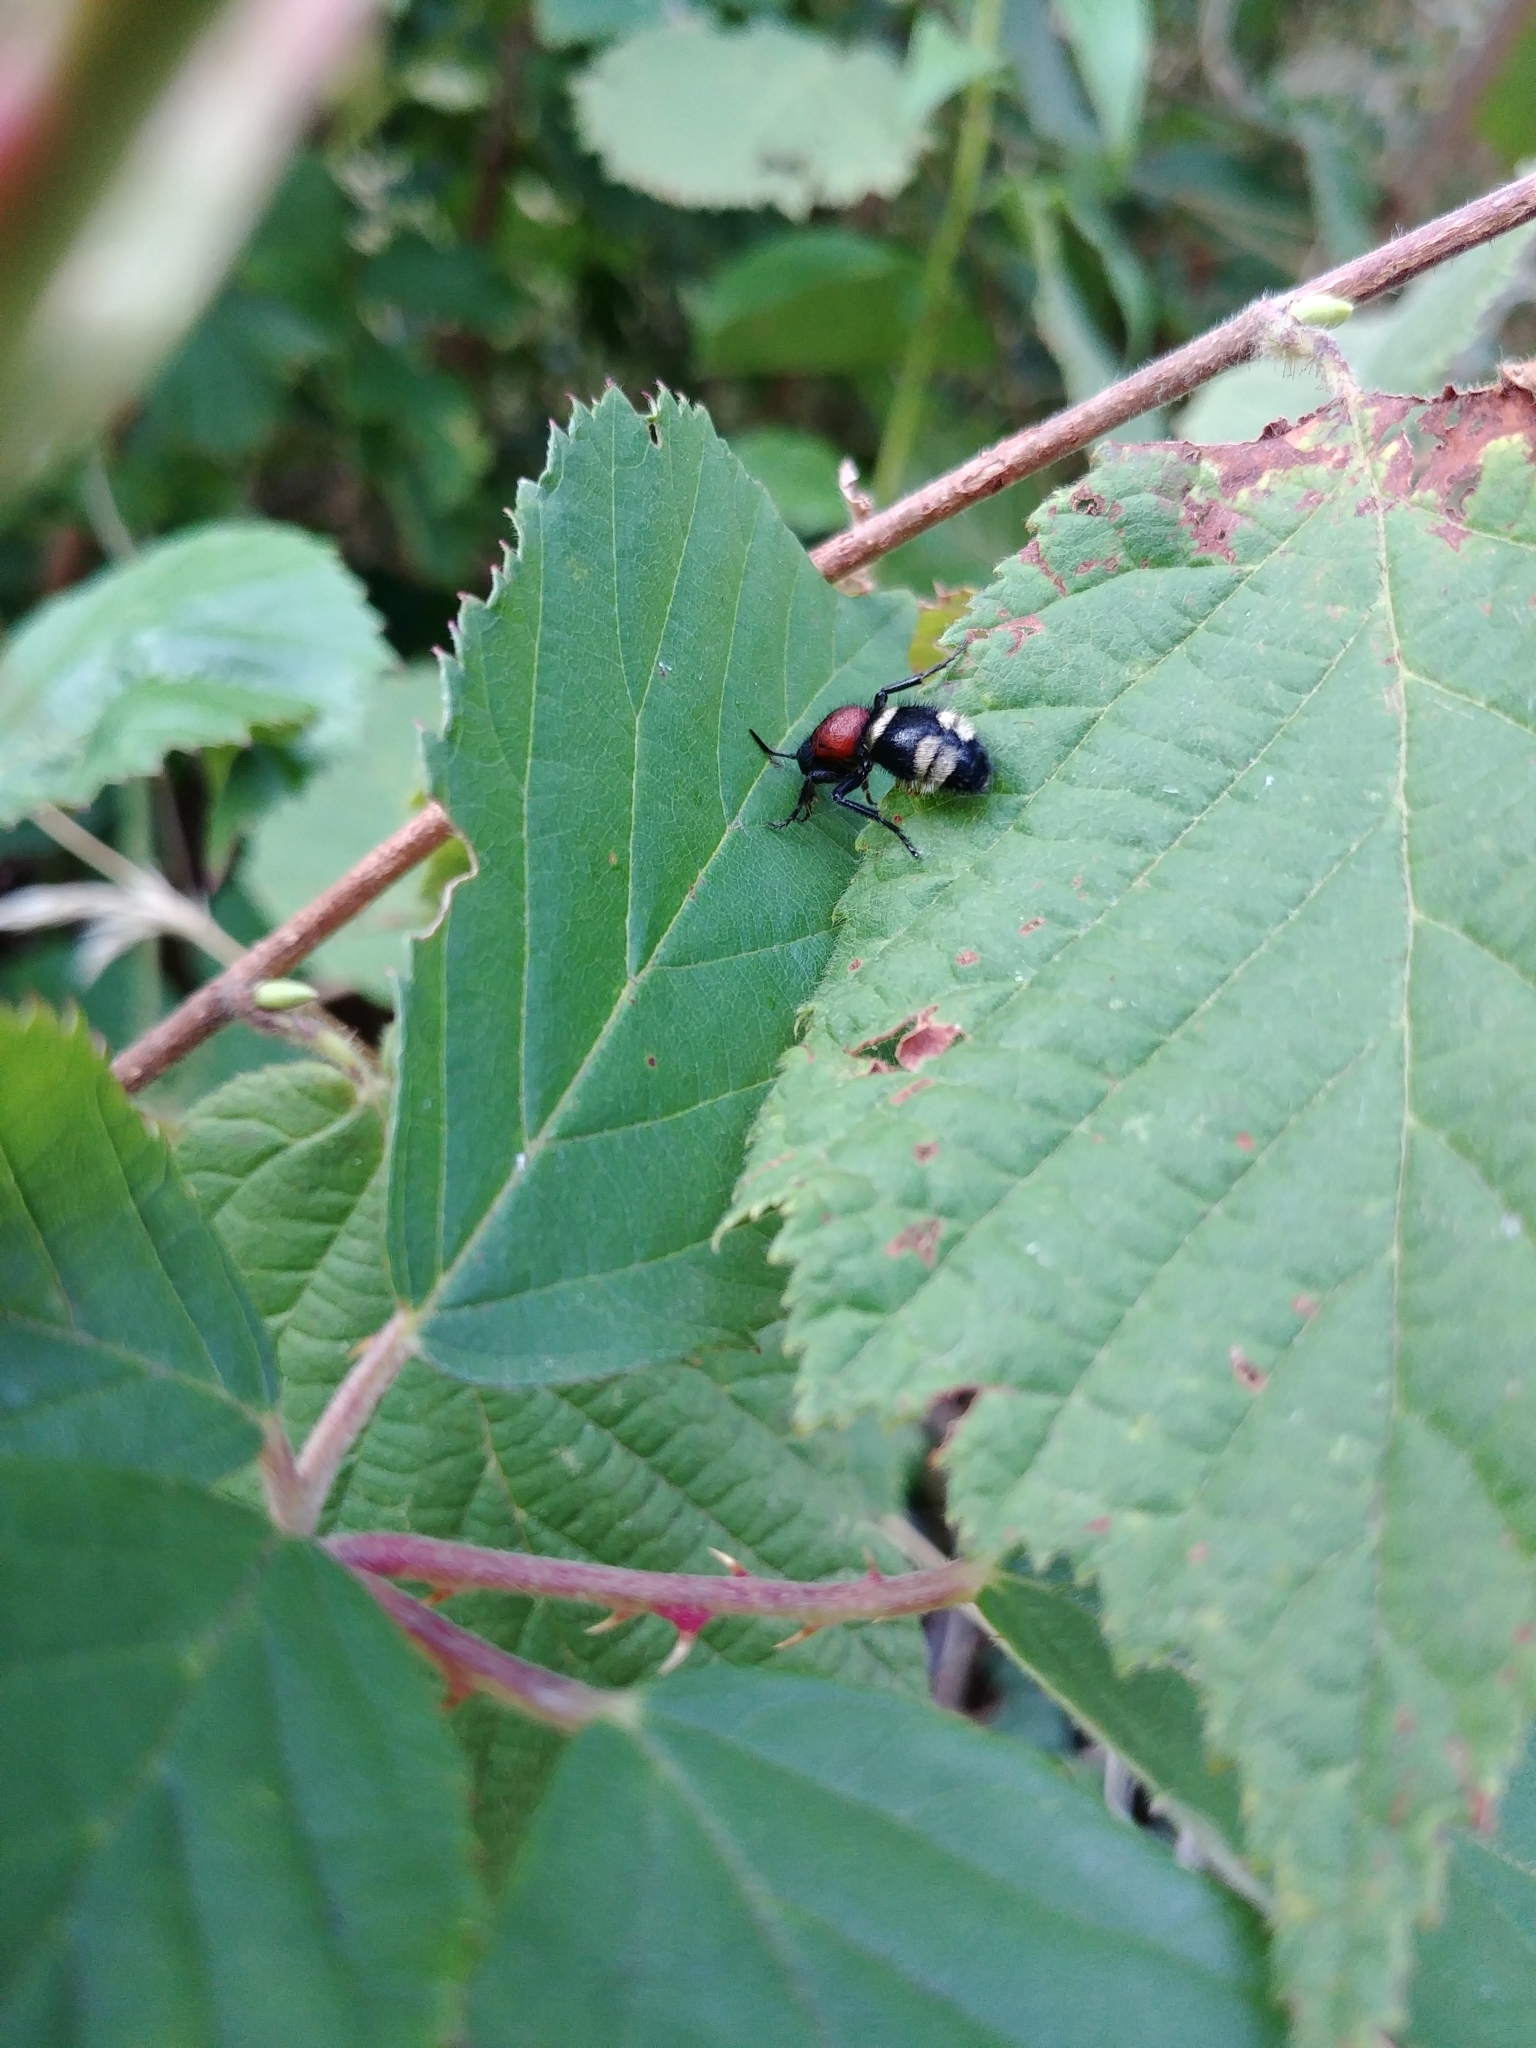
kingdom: Animalia
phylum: Arthropoda
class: Insecta
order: Hymenoptera
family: Mutillidae
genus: Mutilla
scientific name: Mutilla europaea
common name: Large velvet ant
